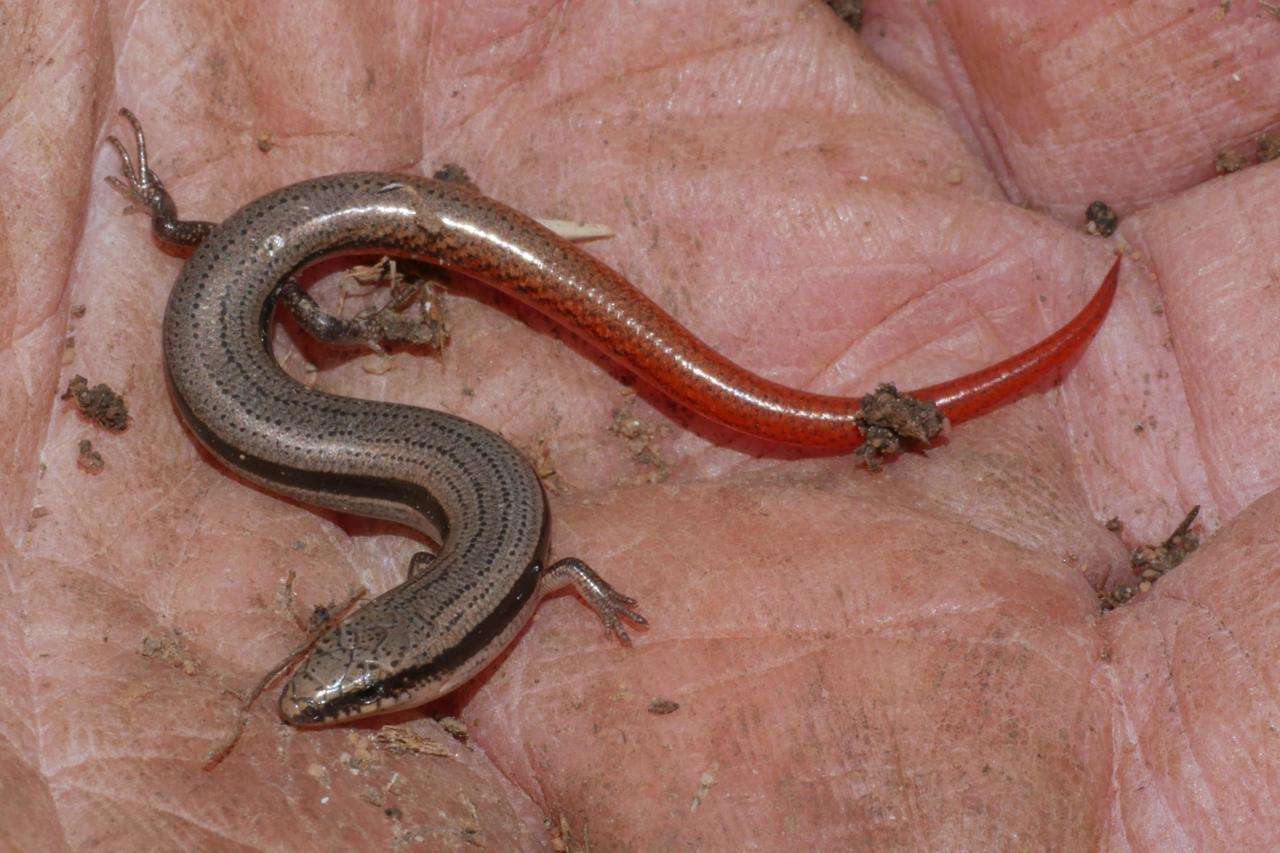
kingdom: Animalia
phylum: Chordata
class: Squamata
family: Scincidae
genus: Lerista
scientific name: Lerista bougainvillii
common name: South-eastern slider
